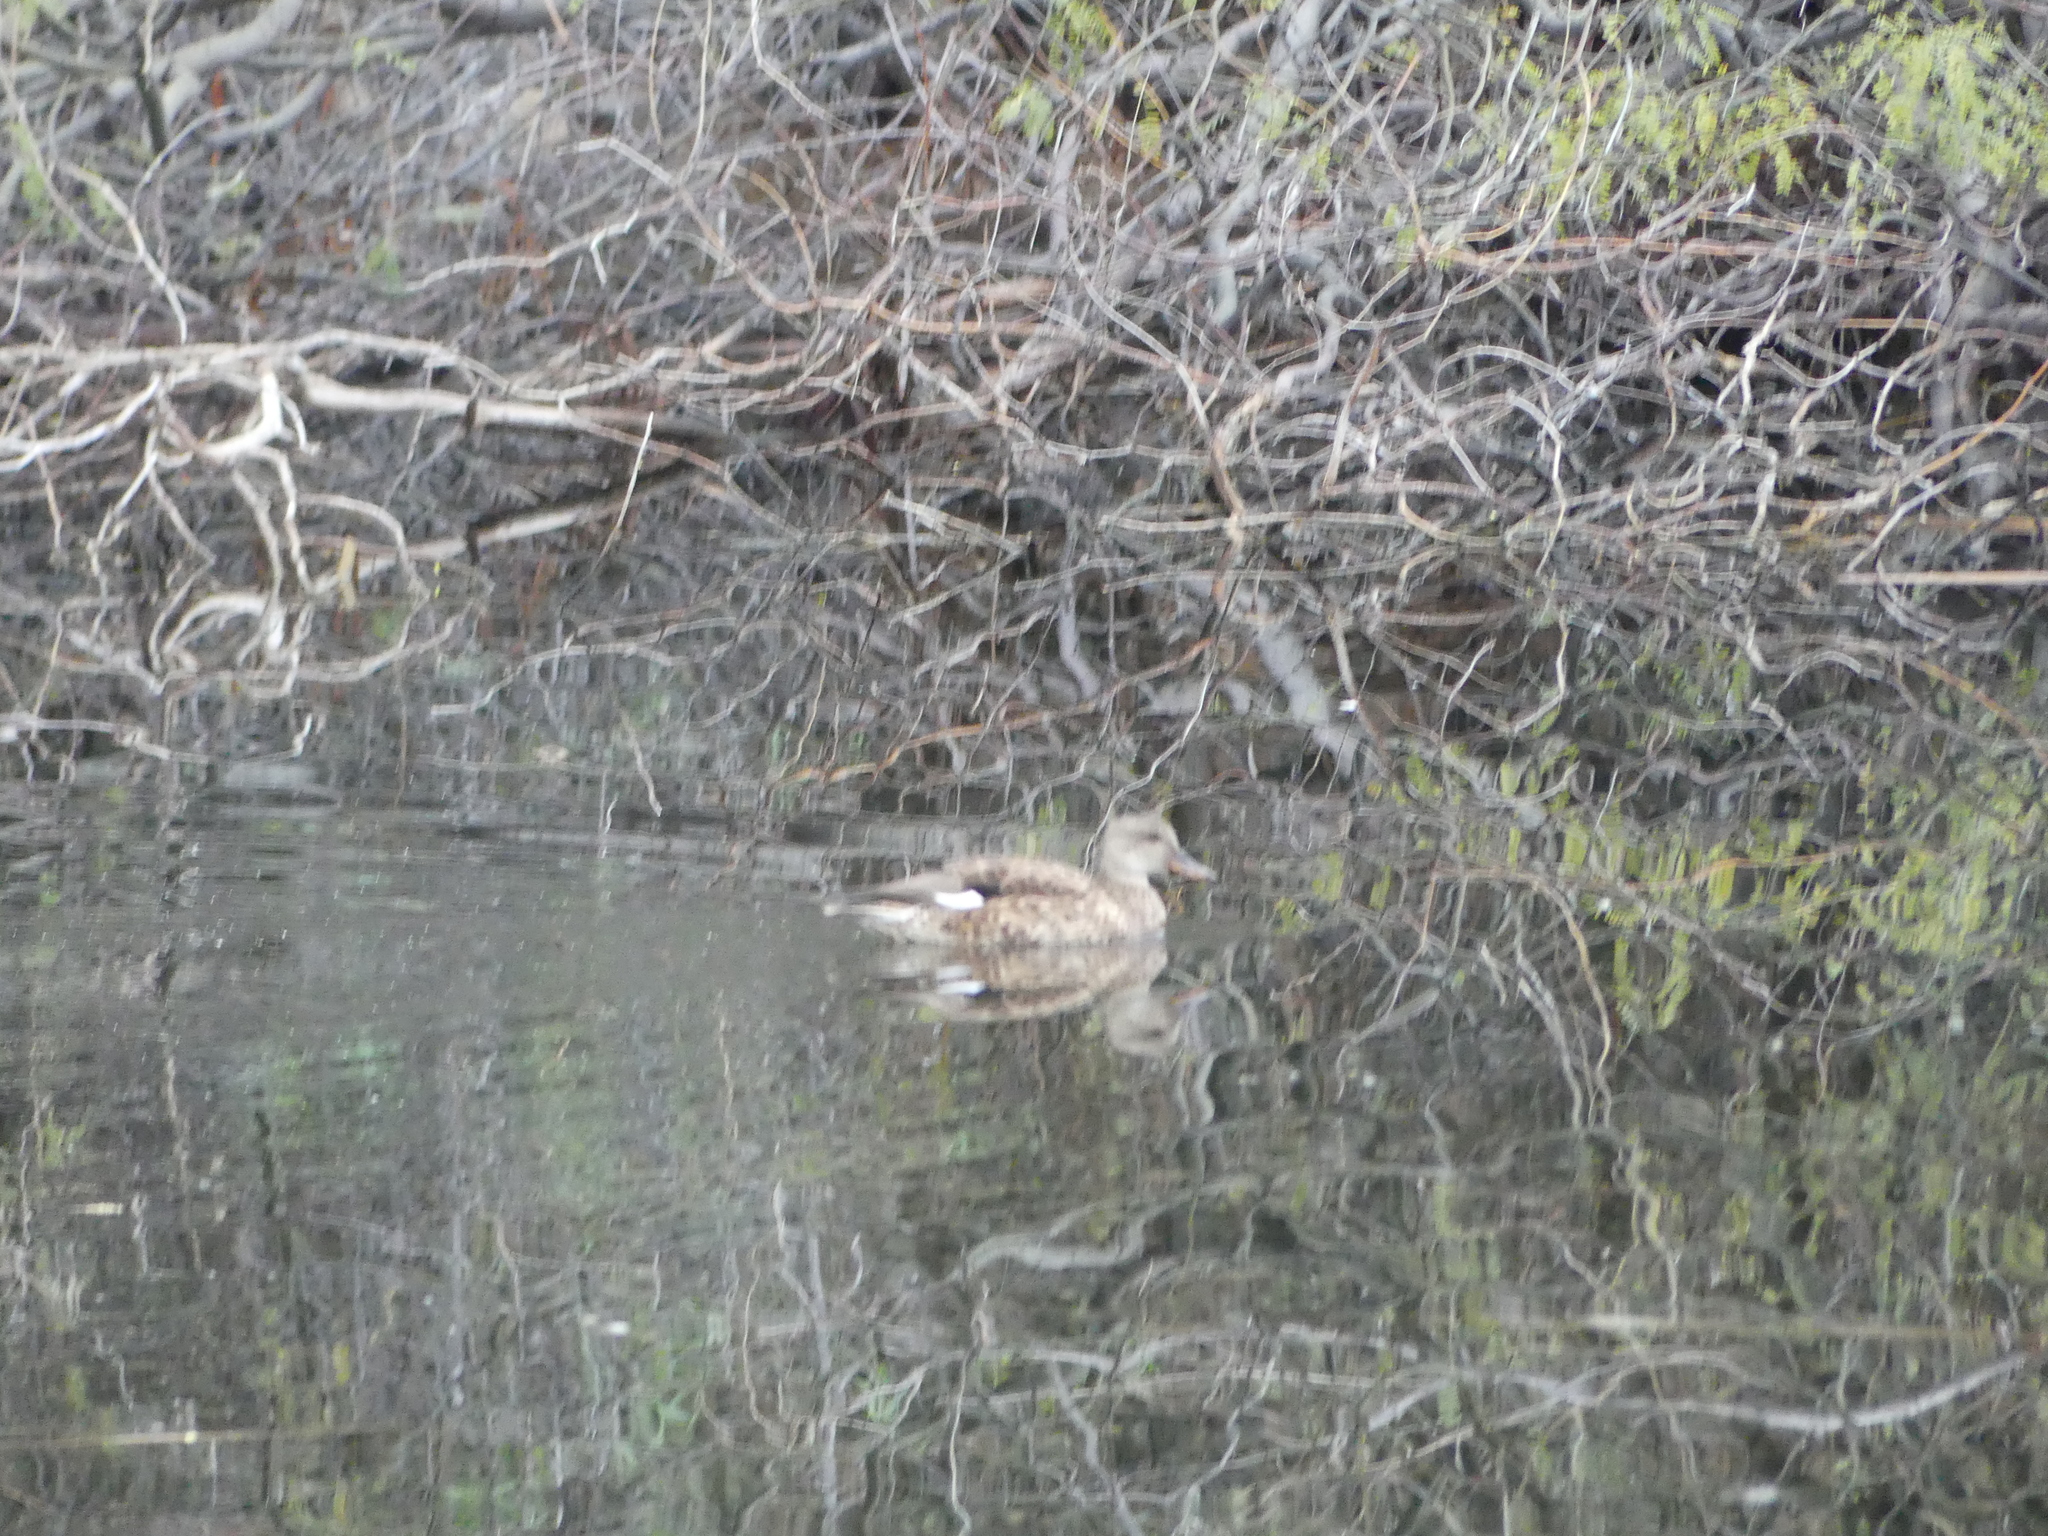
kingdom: Animalia
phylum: Chordata
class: Aves
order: Anseriformes
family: Anatidae
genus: Mareca
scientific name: Mareca strepera
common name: Gadwall
